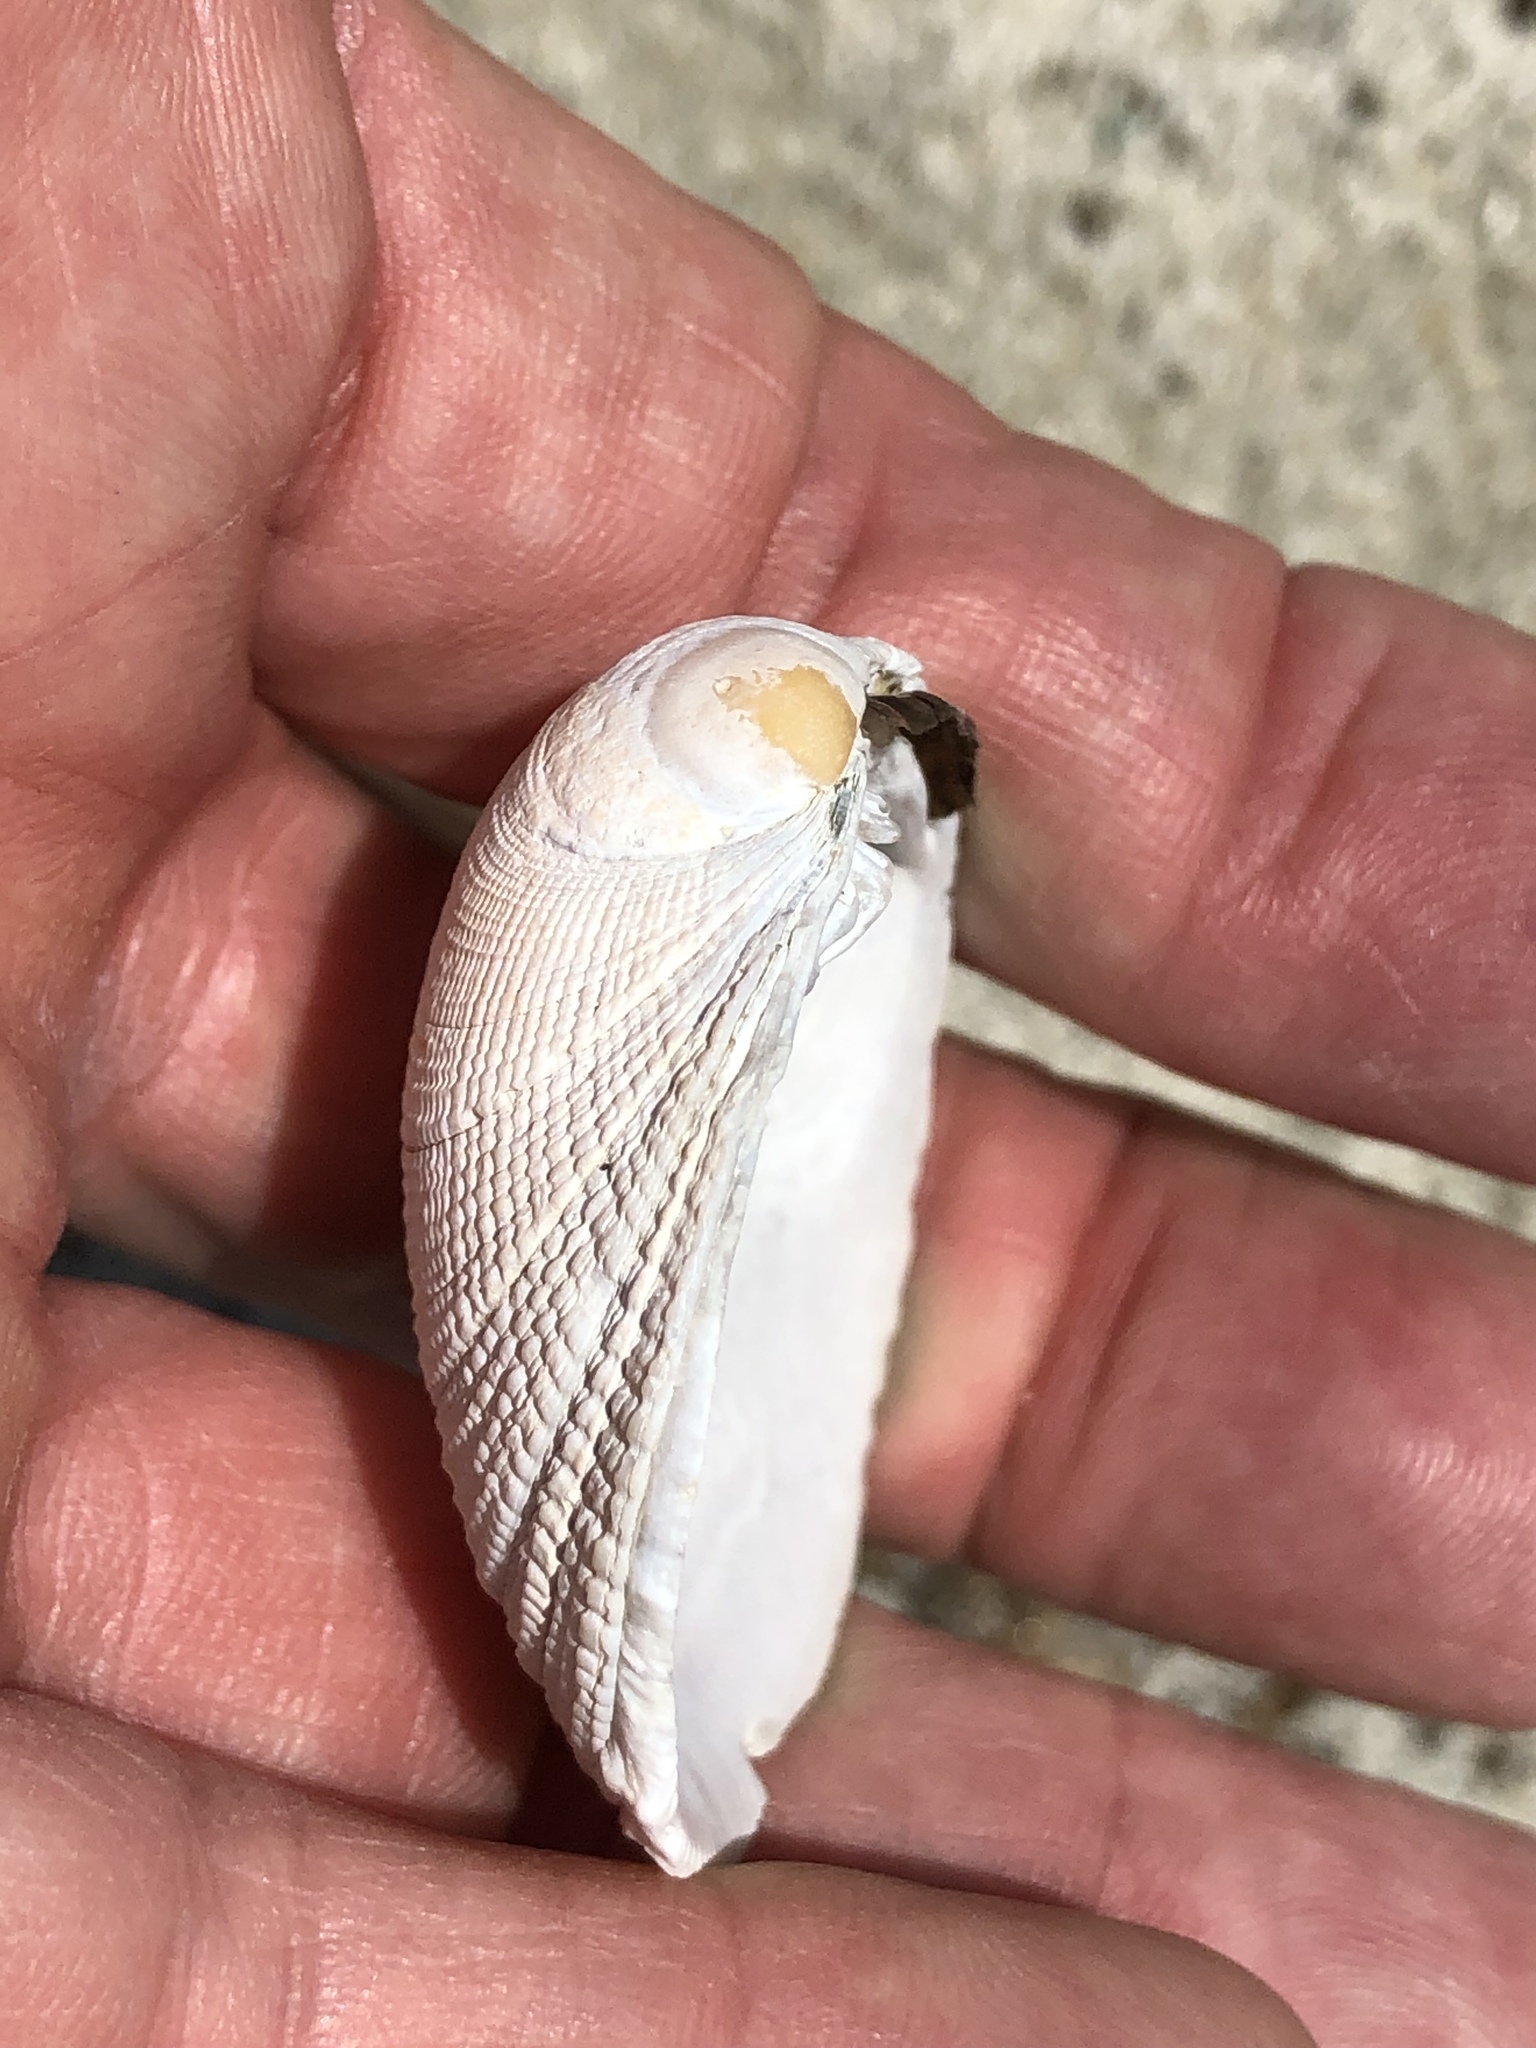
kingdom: Animalia
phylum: Mollusca
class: Bivalvia
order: Venerida
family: Veneridae
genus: Leukoma
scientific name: Leukoma staminea
